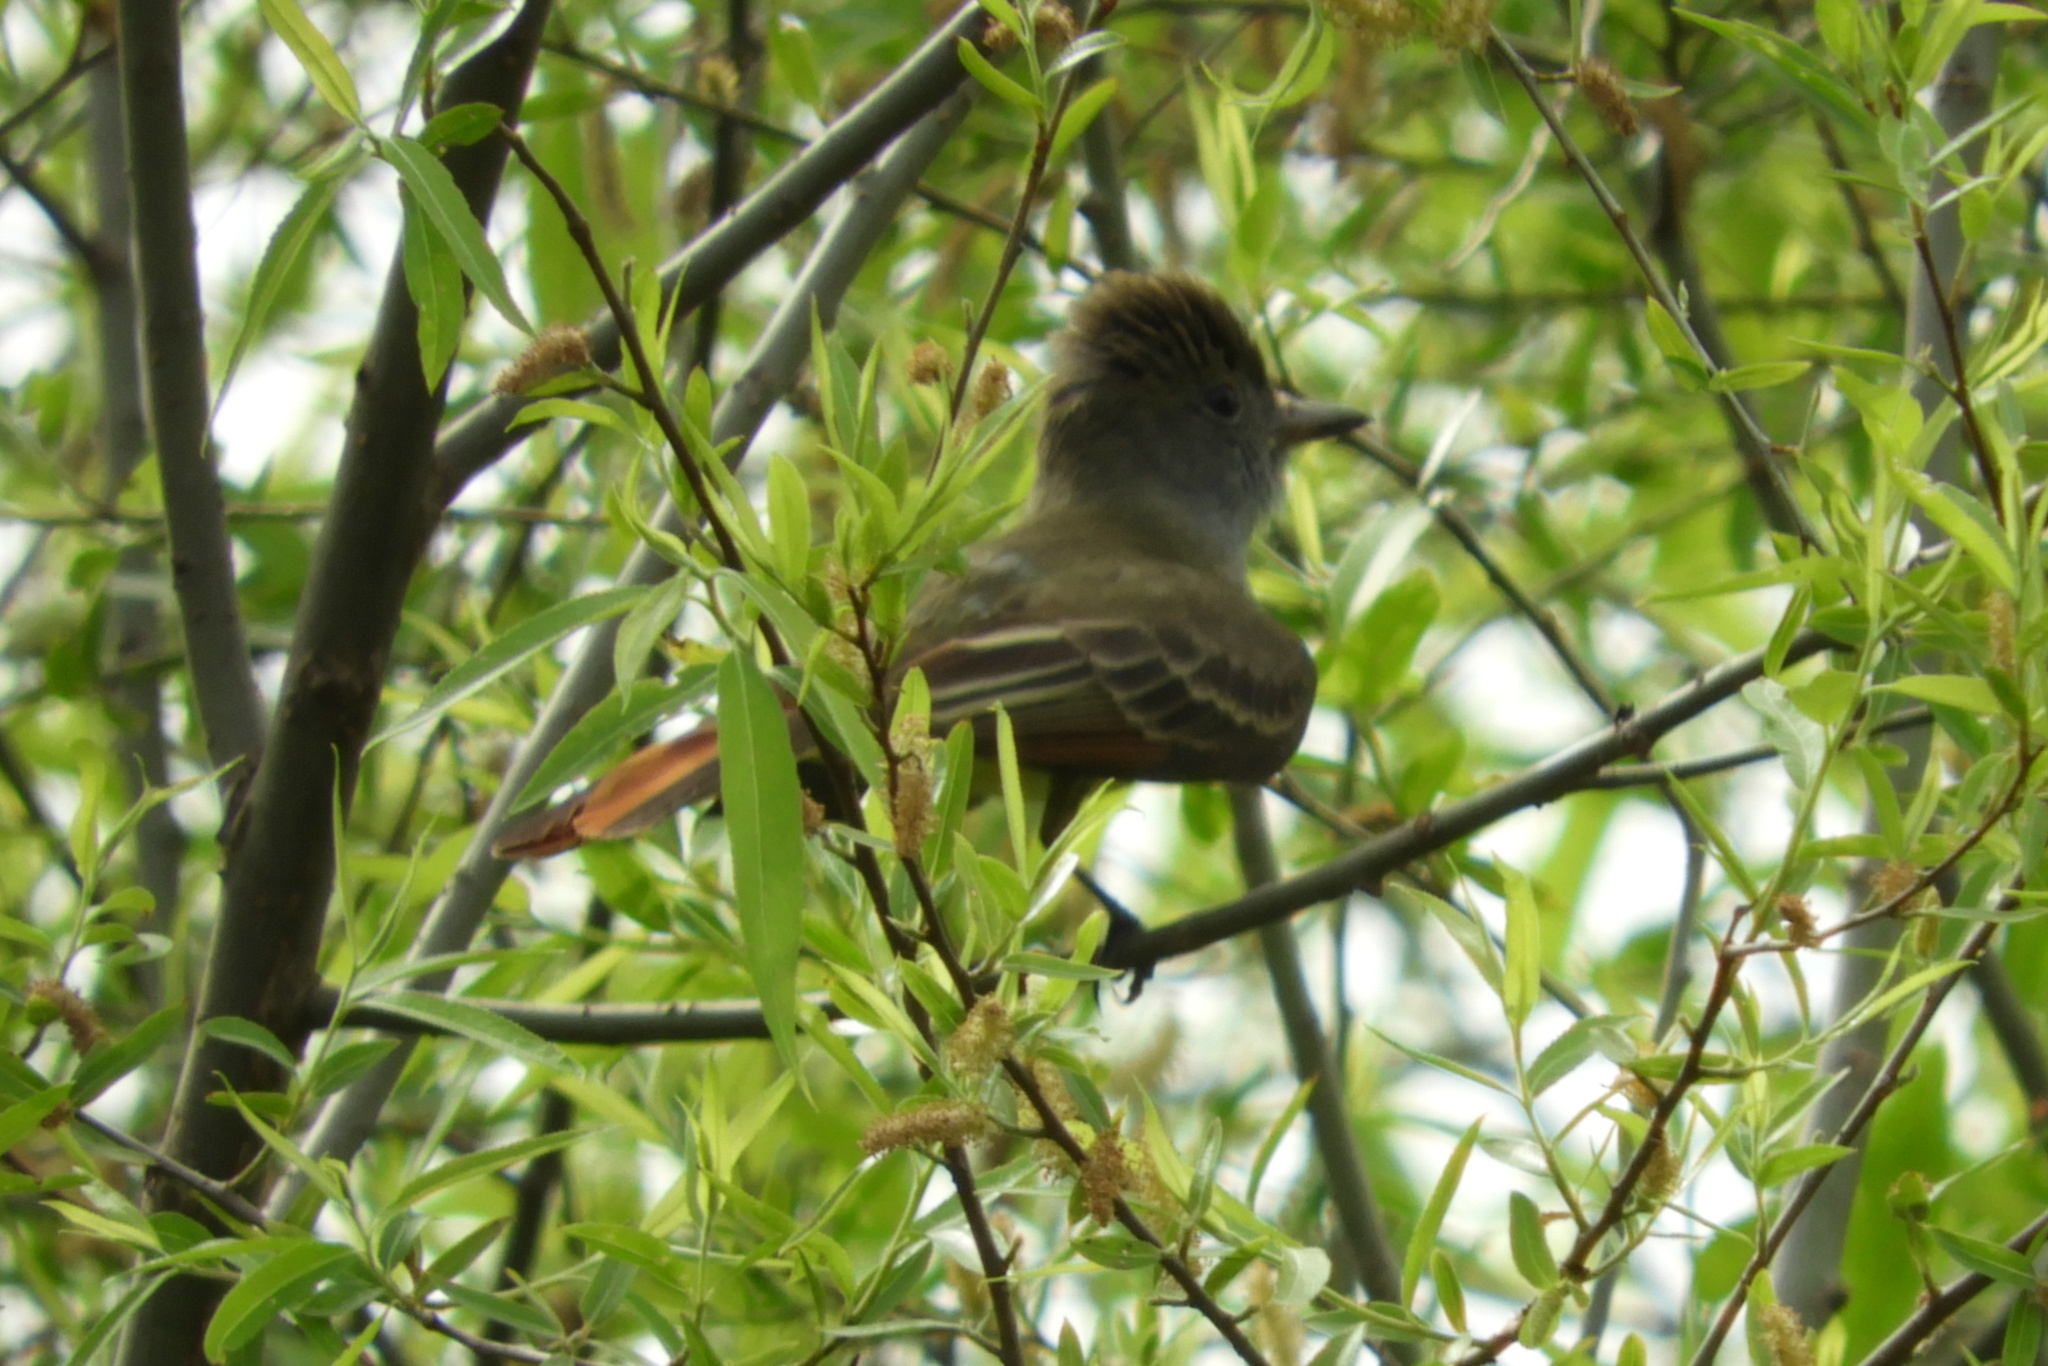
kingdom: Animalia
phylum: Chordata
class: Aves
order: Passeriformes
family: Tyrannidae
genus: Myiarchus
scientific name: Myiarchus crinitus
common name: Great crested flycatcher
